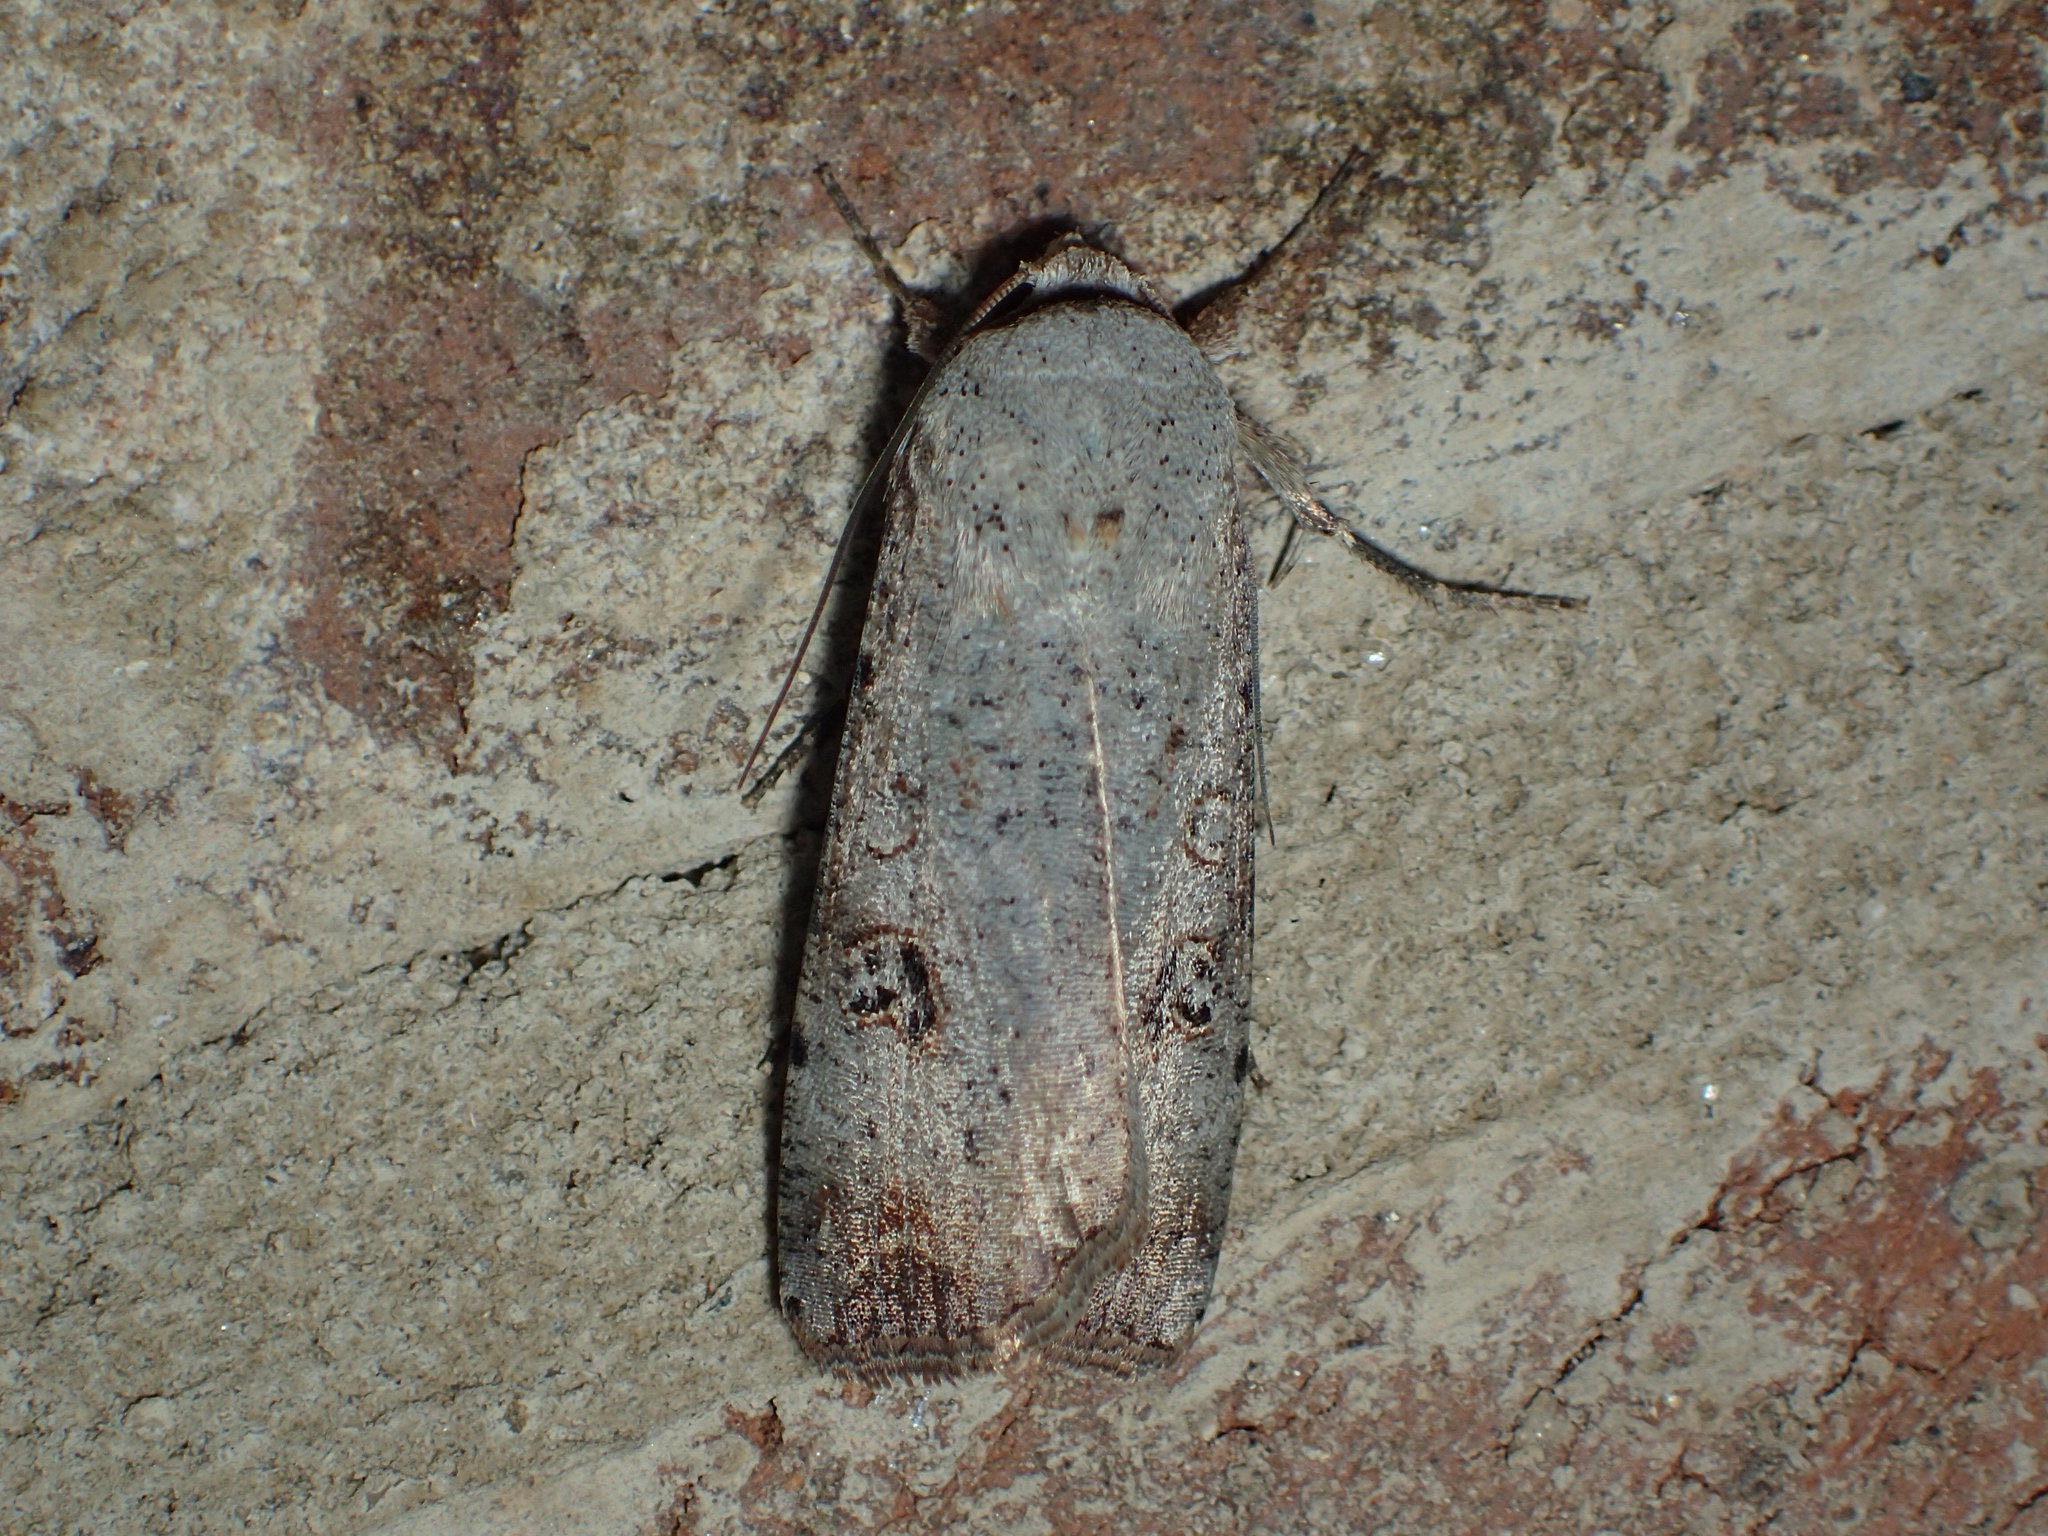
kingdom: Animalia
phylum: Arthropoda
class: Insecta
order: Lepidoptera
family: Noctuidae
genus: Anicla
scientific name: Anicla infecta
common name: Green cutworm
